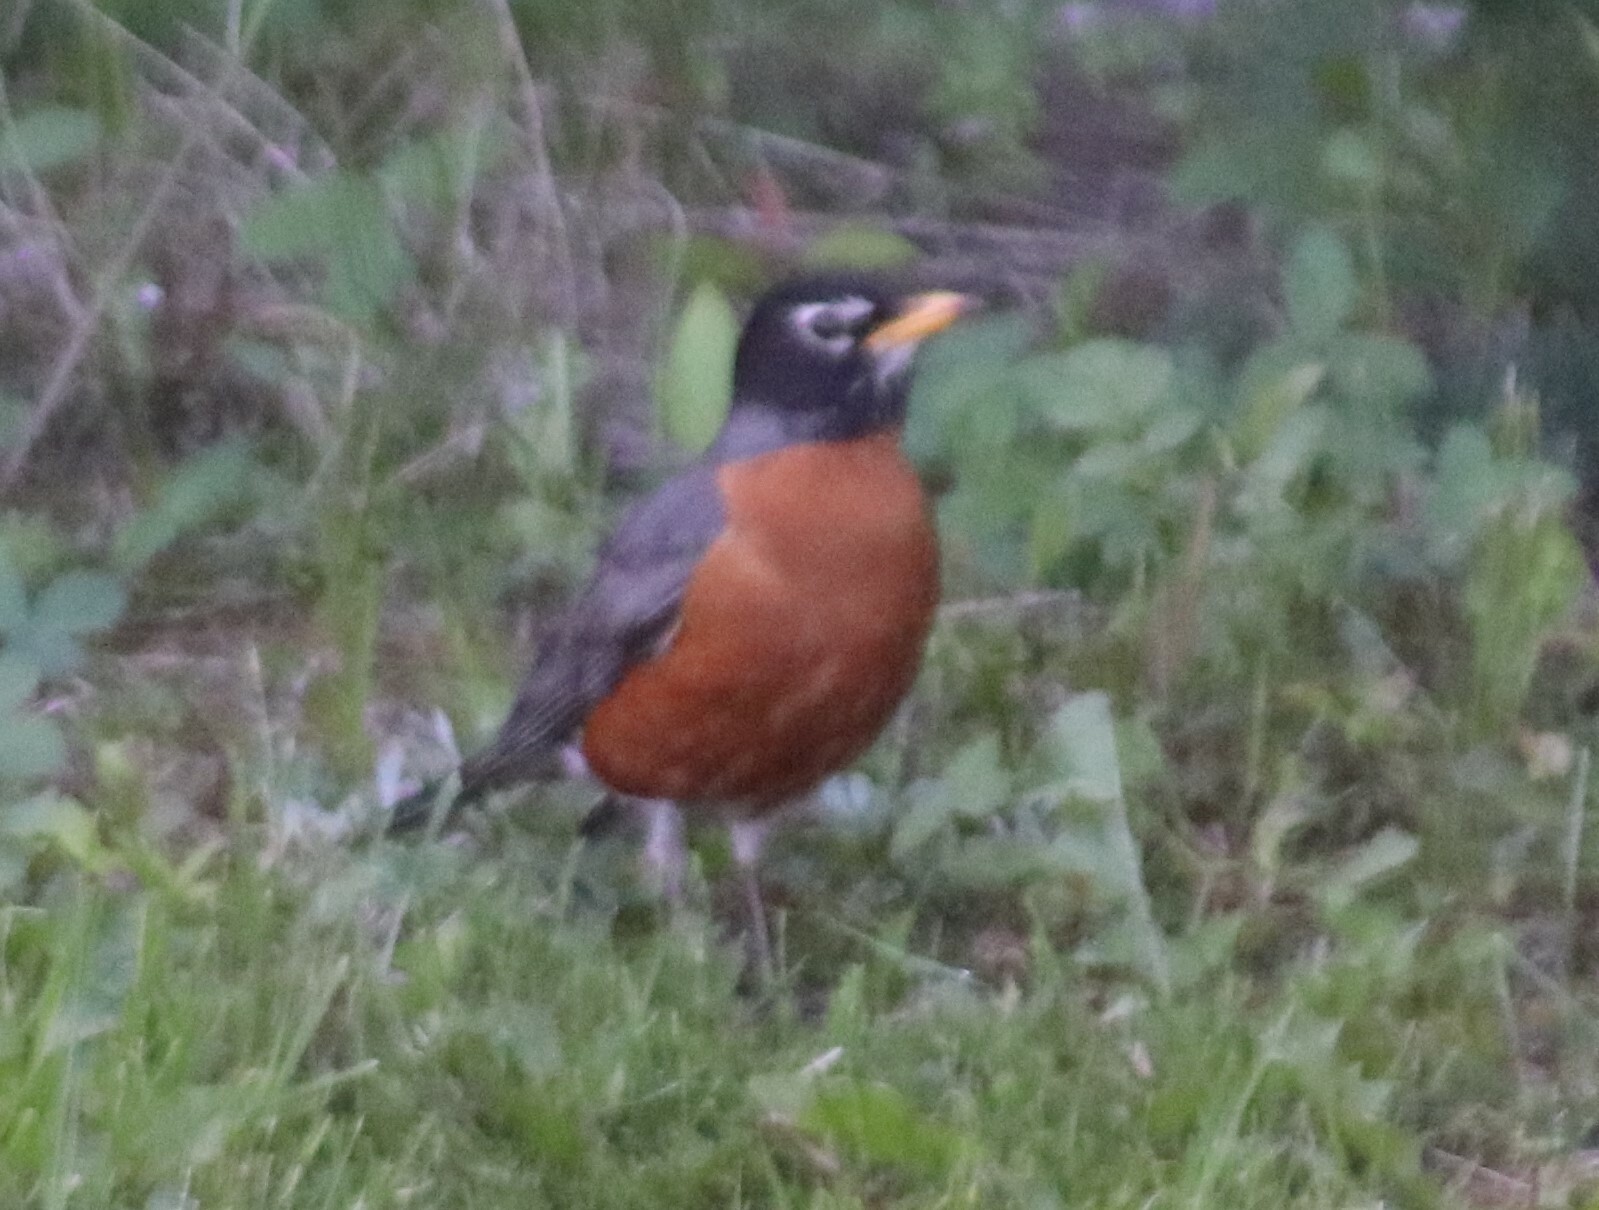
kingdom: Animalia
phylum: Chordata
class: Aves
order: Passeriformes
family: Turdidae
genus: Turdus
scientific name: Turdus migratorius
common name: American robin
